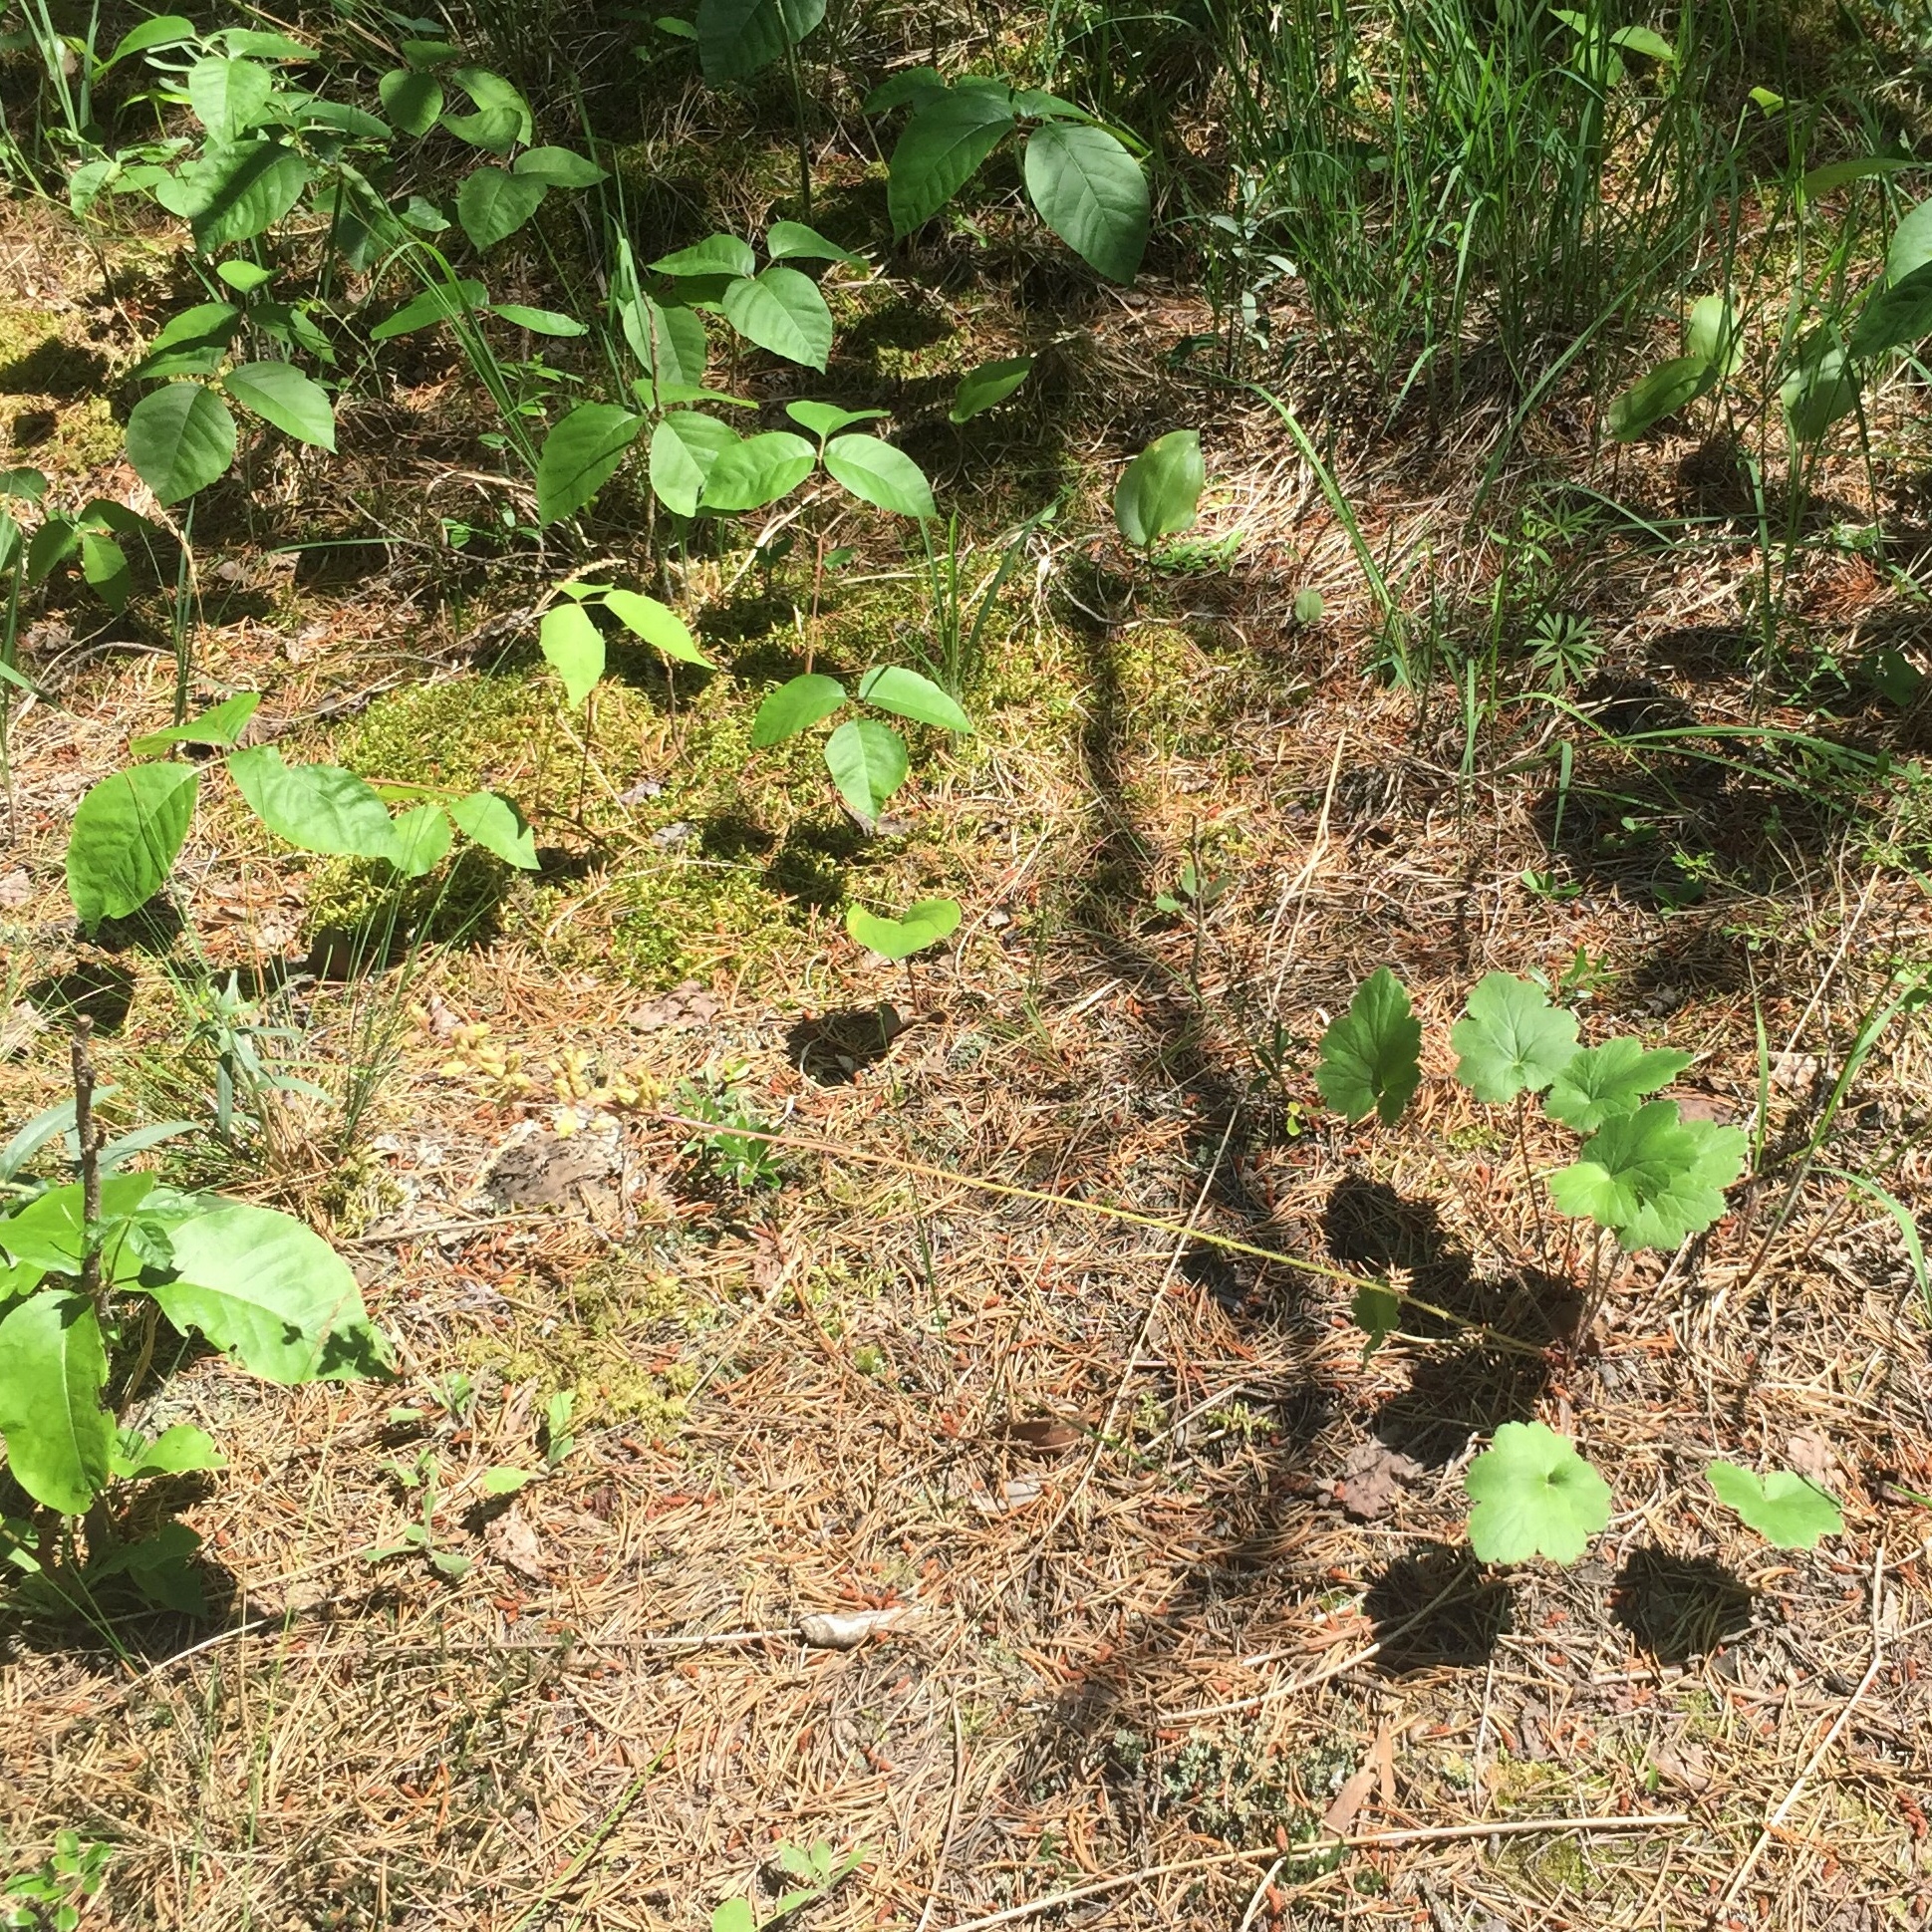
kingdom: Plantae
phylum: Tracheophyta
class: Magnoliopsida
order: Saxifragales
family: Saxifragaceae
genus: Heuchera
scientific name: Heuchera richardsonii
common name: Richardson's alumroot
